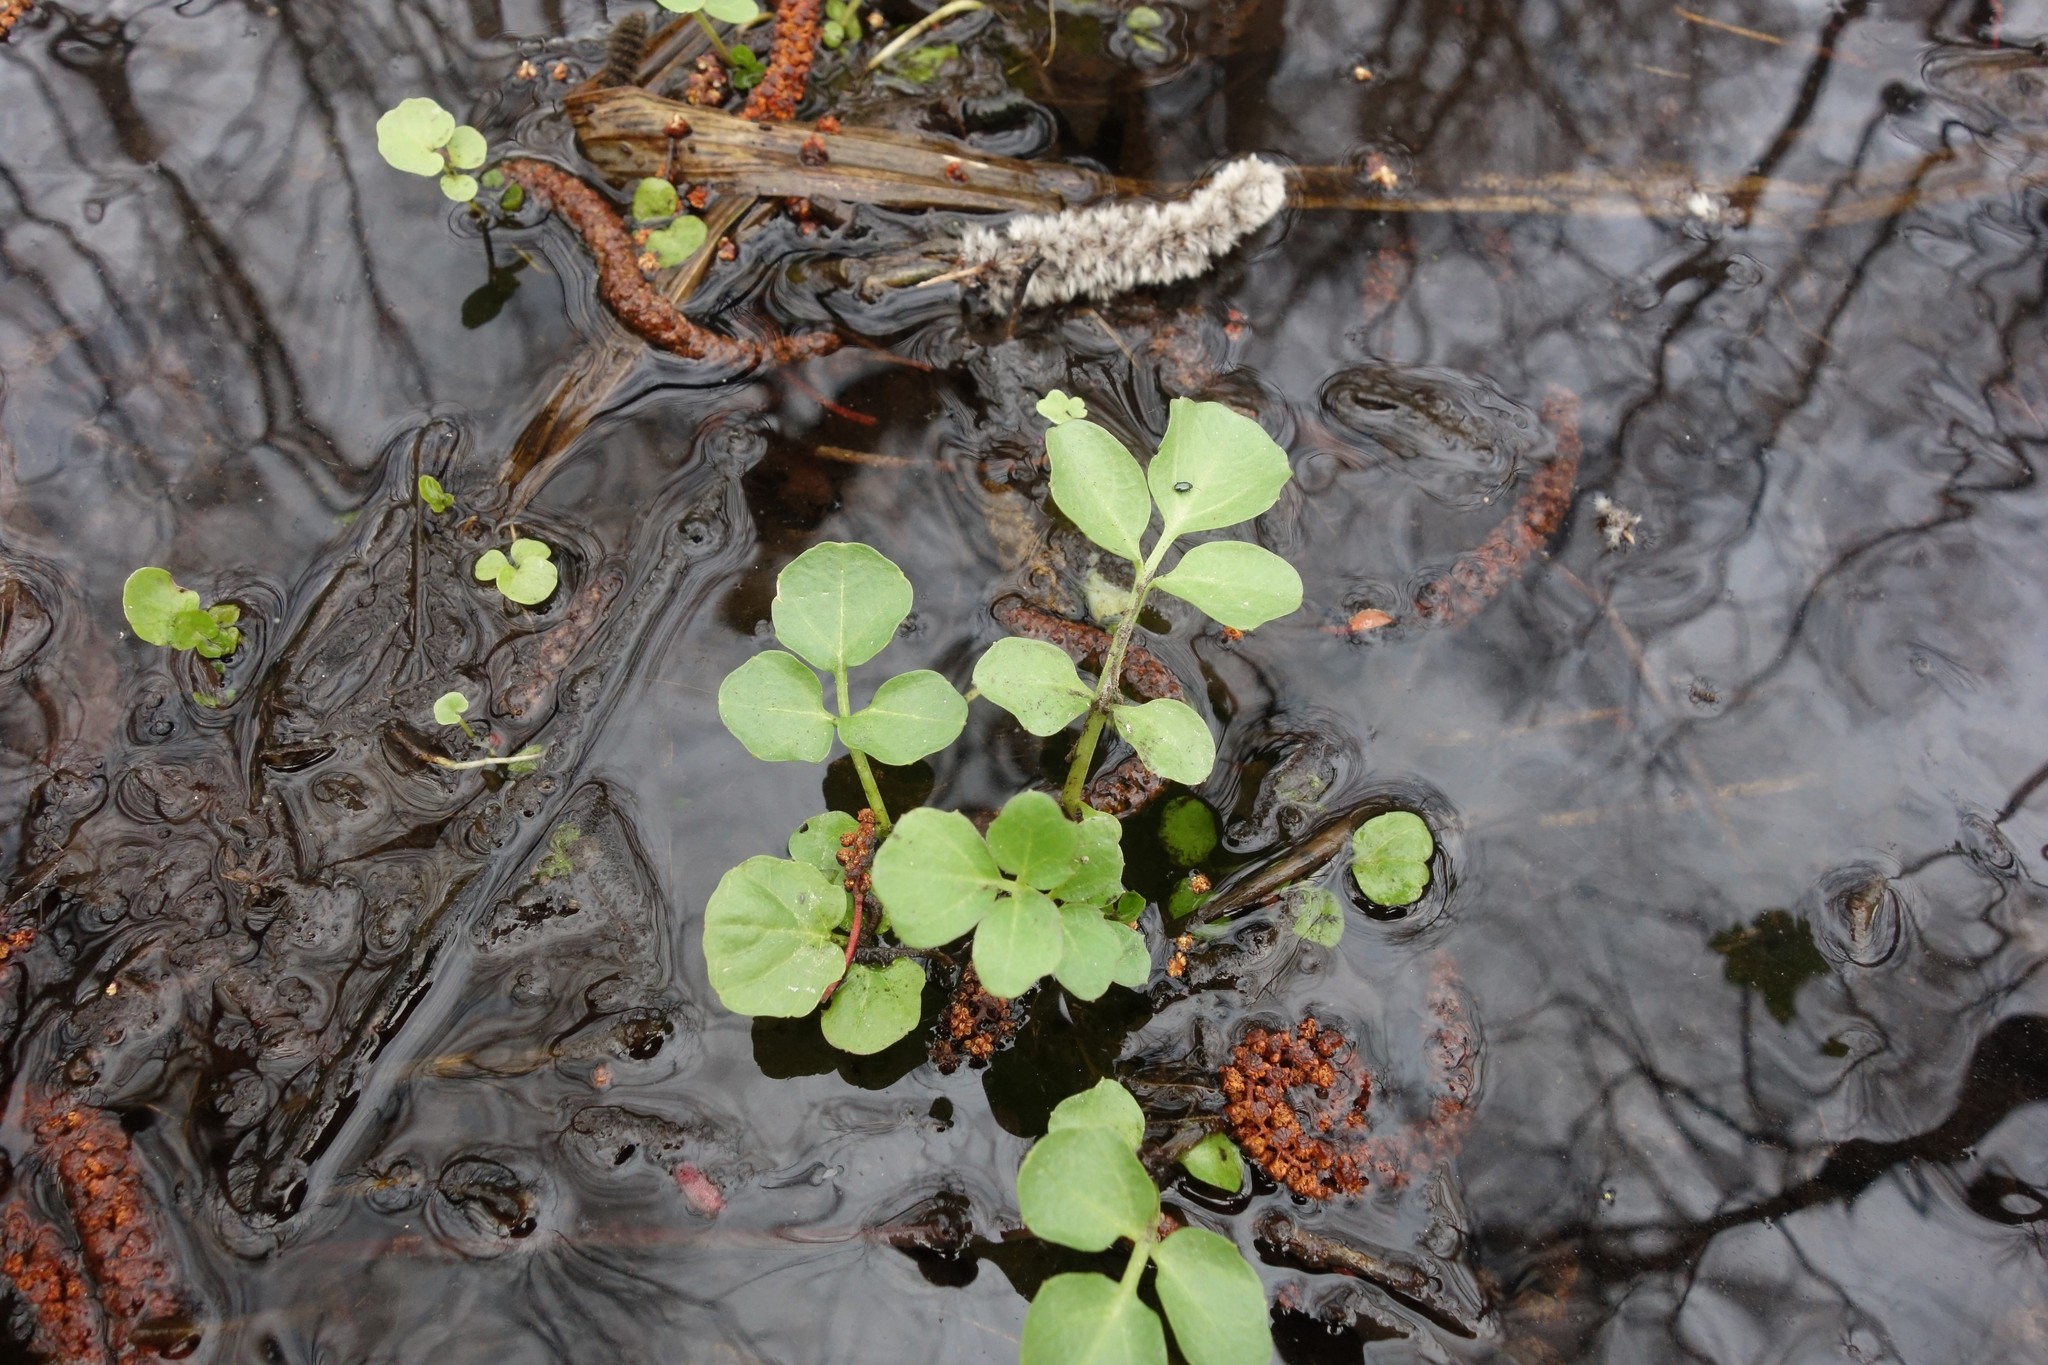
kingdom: Plantae
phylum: Tracheophyta
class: Magnoliopsida
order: Brassicales
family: Brassicaceae
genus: Cardamine
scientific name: Cardamine amara
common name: Large bitter-cress
